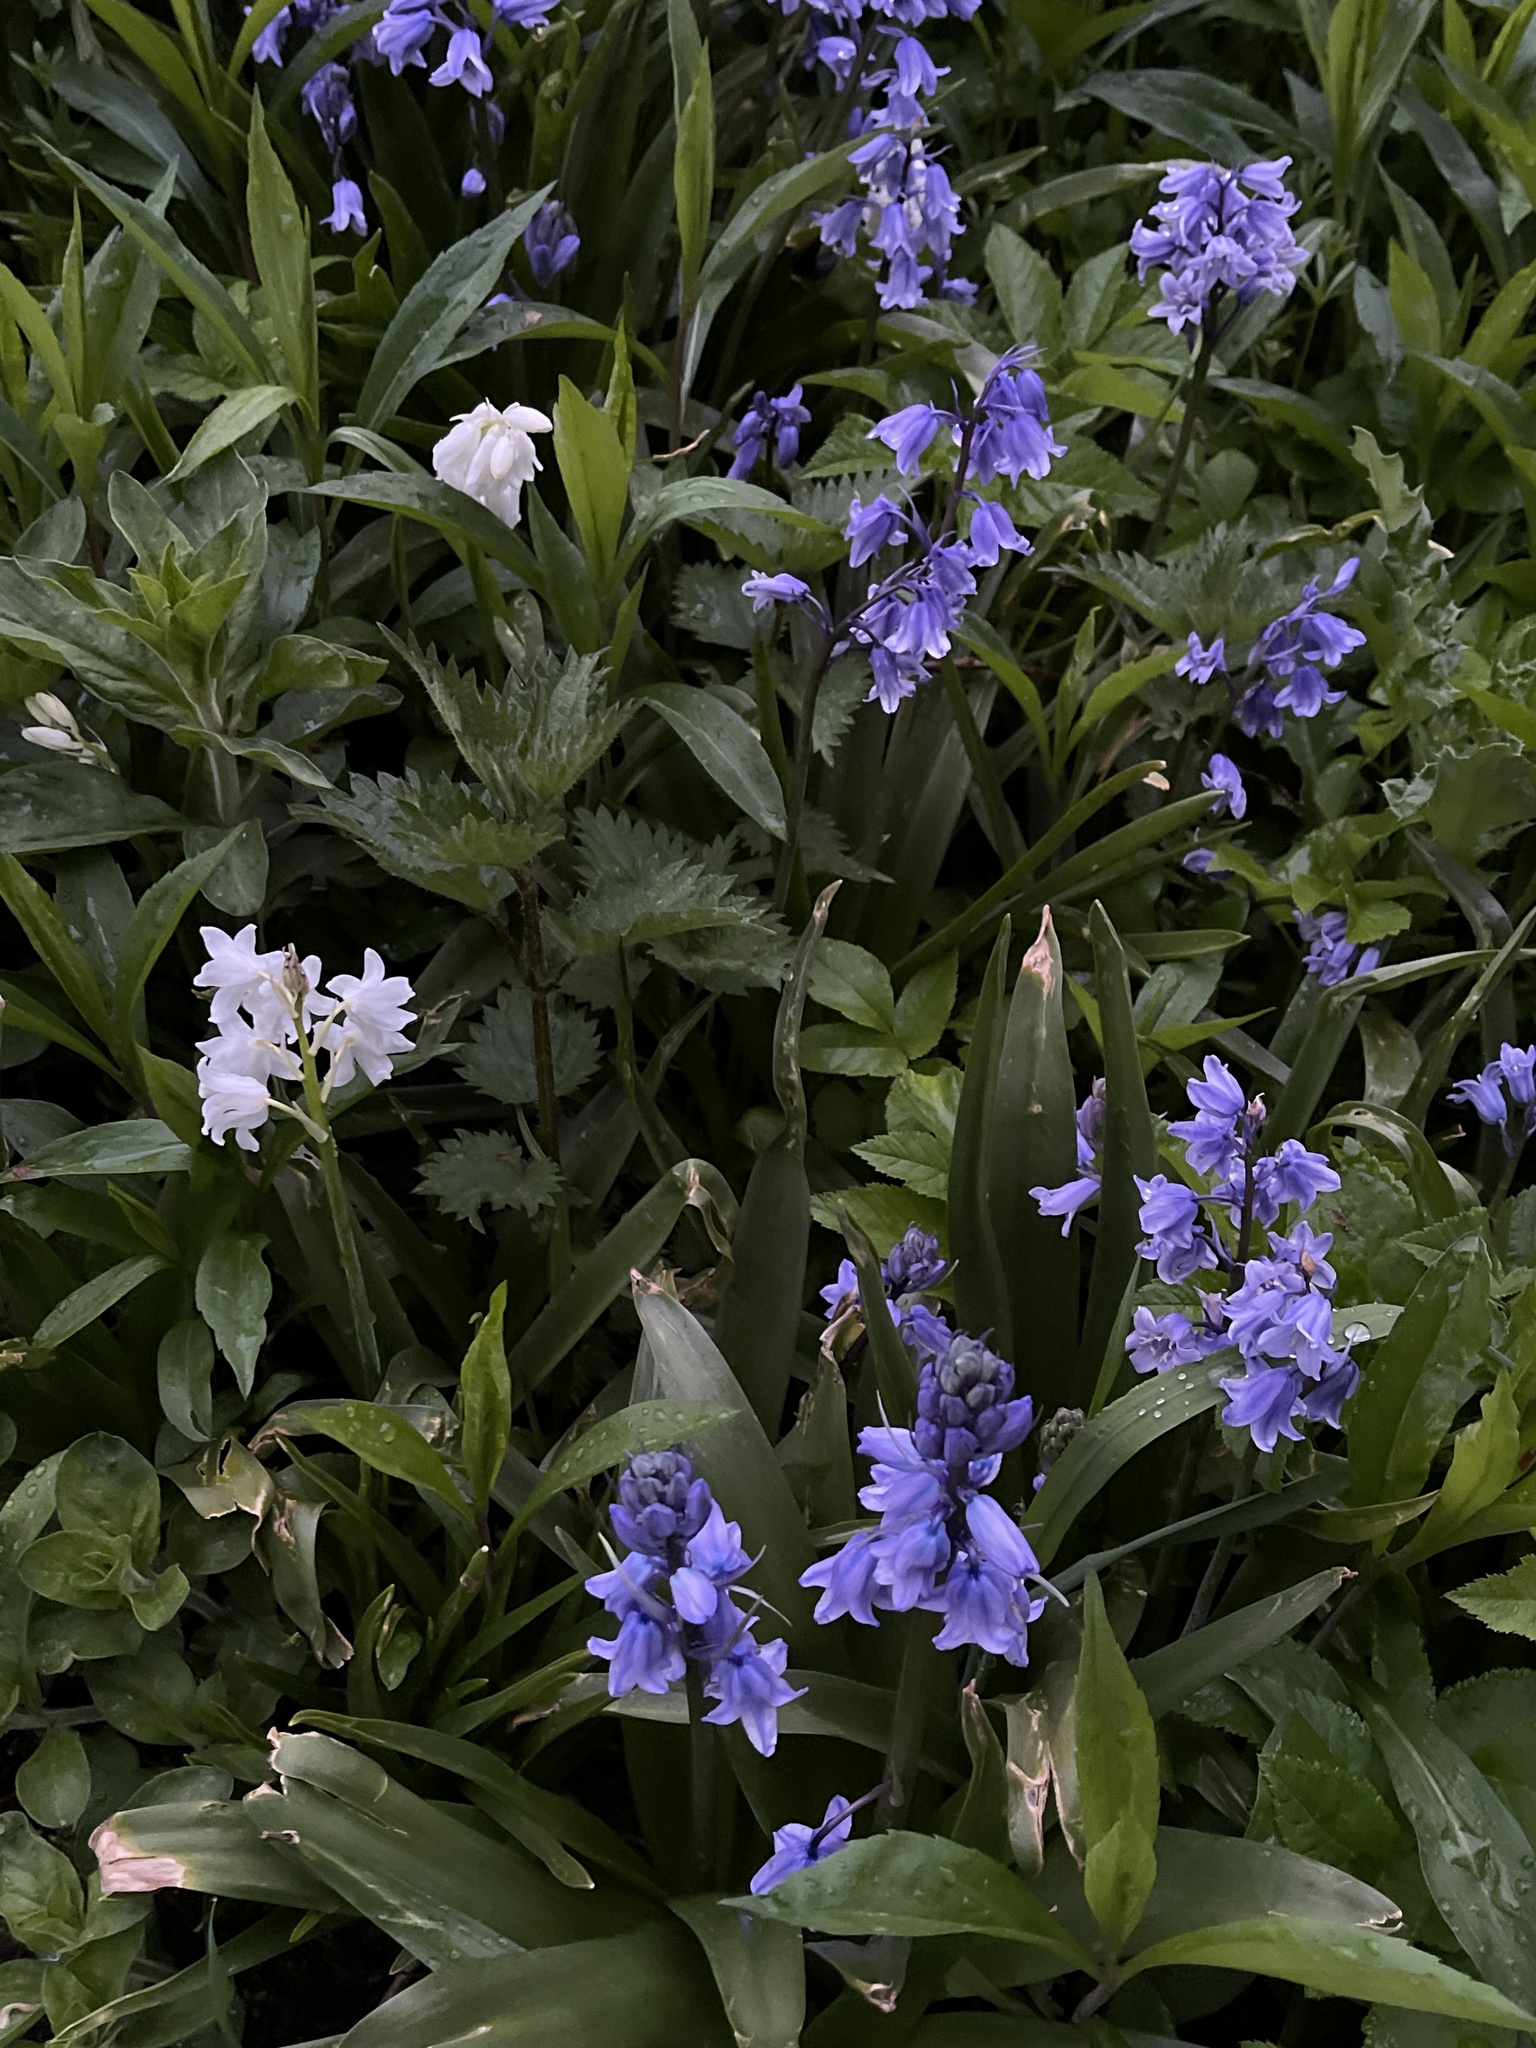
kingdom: Plantae
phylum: Tracheophyta
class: Liliopsida
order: Asparagales
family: Asparagaceae
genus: Hyacinthoides
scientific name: Hyacinthoides massartiana
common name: Hyacinthoides
